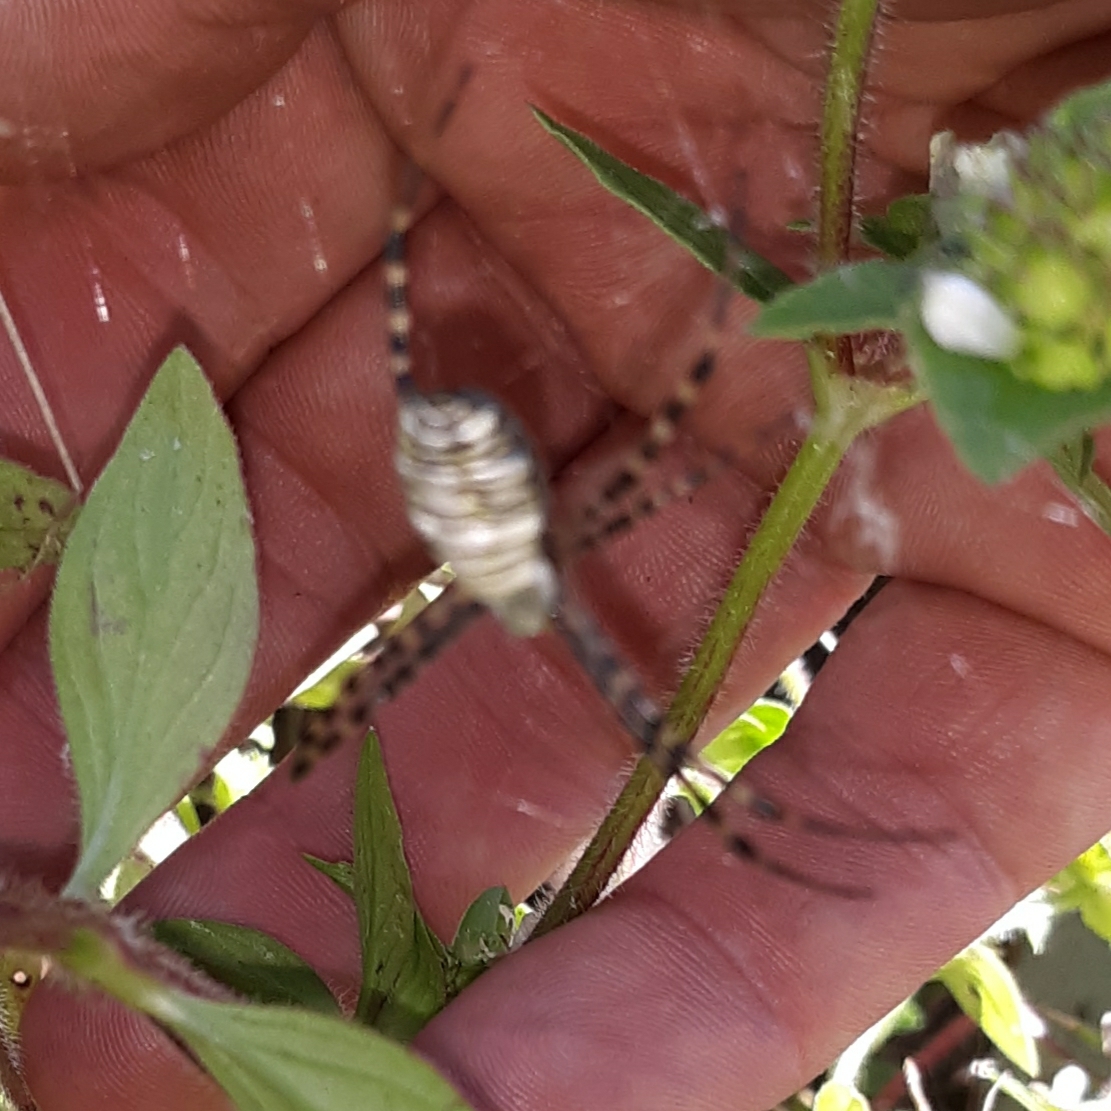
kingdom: Animalia
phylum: Arthropoda
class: Arachnida
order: Araneae
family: Araneidae
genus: Argiope
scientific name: Argiope trifasciata
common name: Banded garden spider
